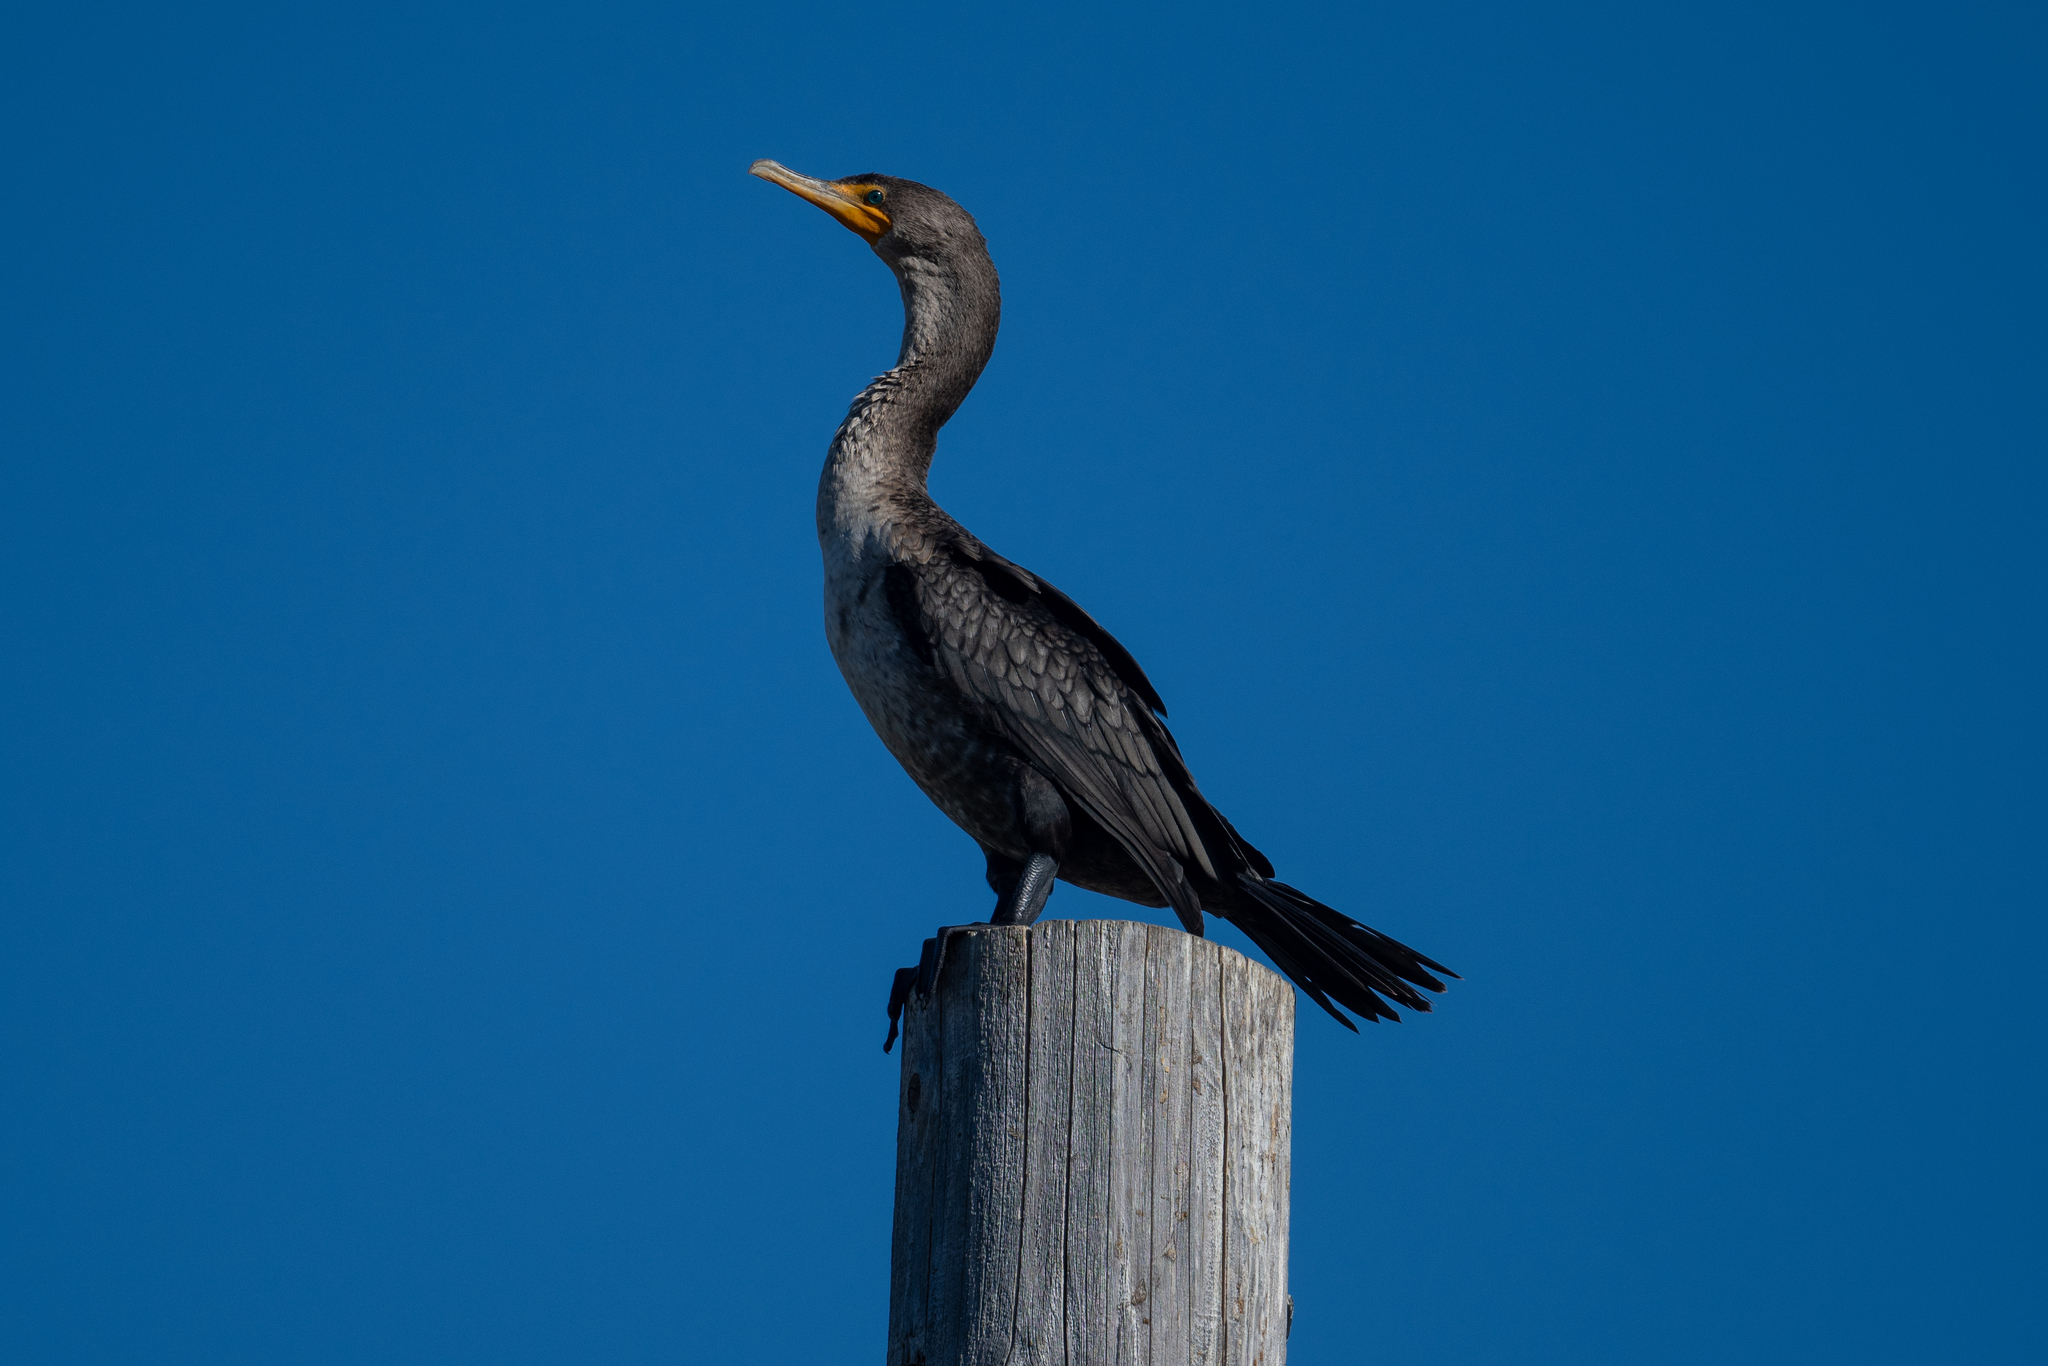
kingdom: Animalia
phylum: Chordata
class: Aves
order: Suliformes
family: Phalacrocoracidae
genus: Phalacrocorax
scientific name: Phalacrocorax auritus
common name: Double-crested cormorant
